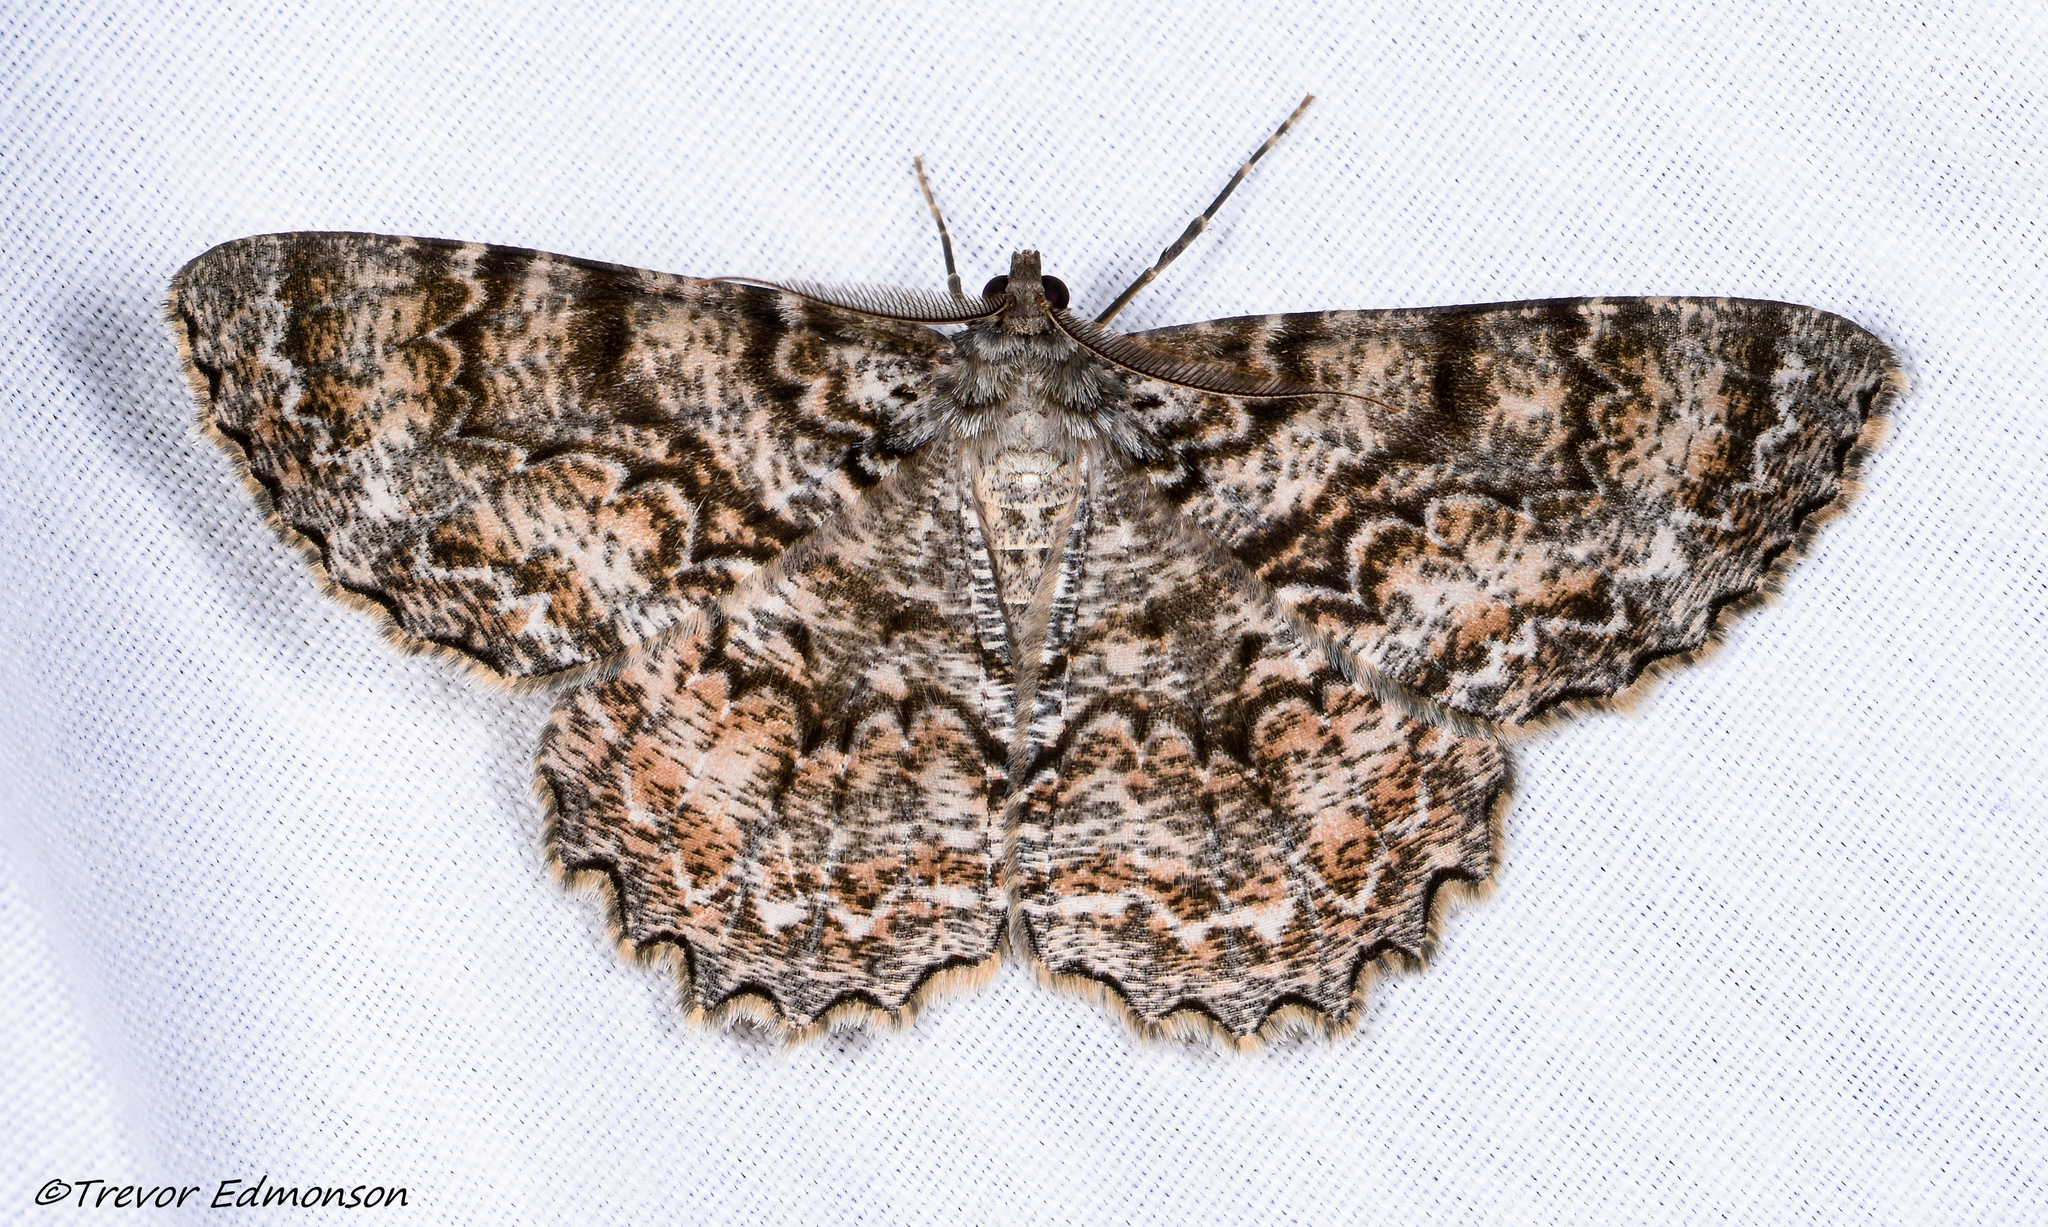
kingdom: Animalia
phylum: Arthropoda
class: Insecta
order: Lepidoptera
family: Geometridae
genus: Epimecis
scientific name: Epimecis hortaria
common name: Tulip-tree beauty
